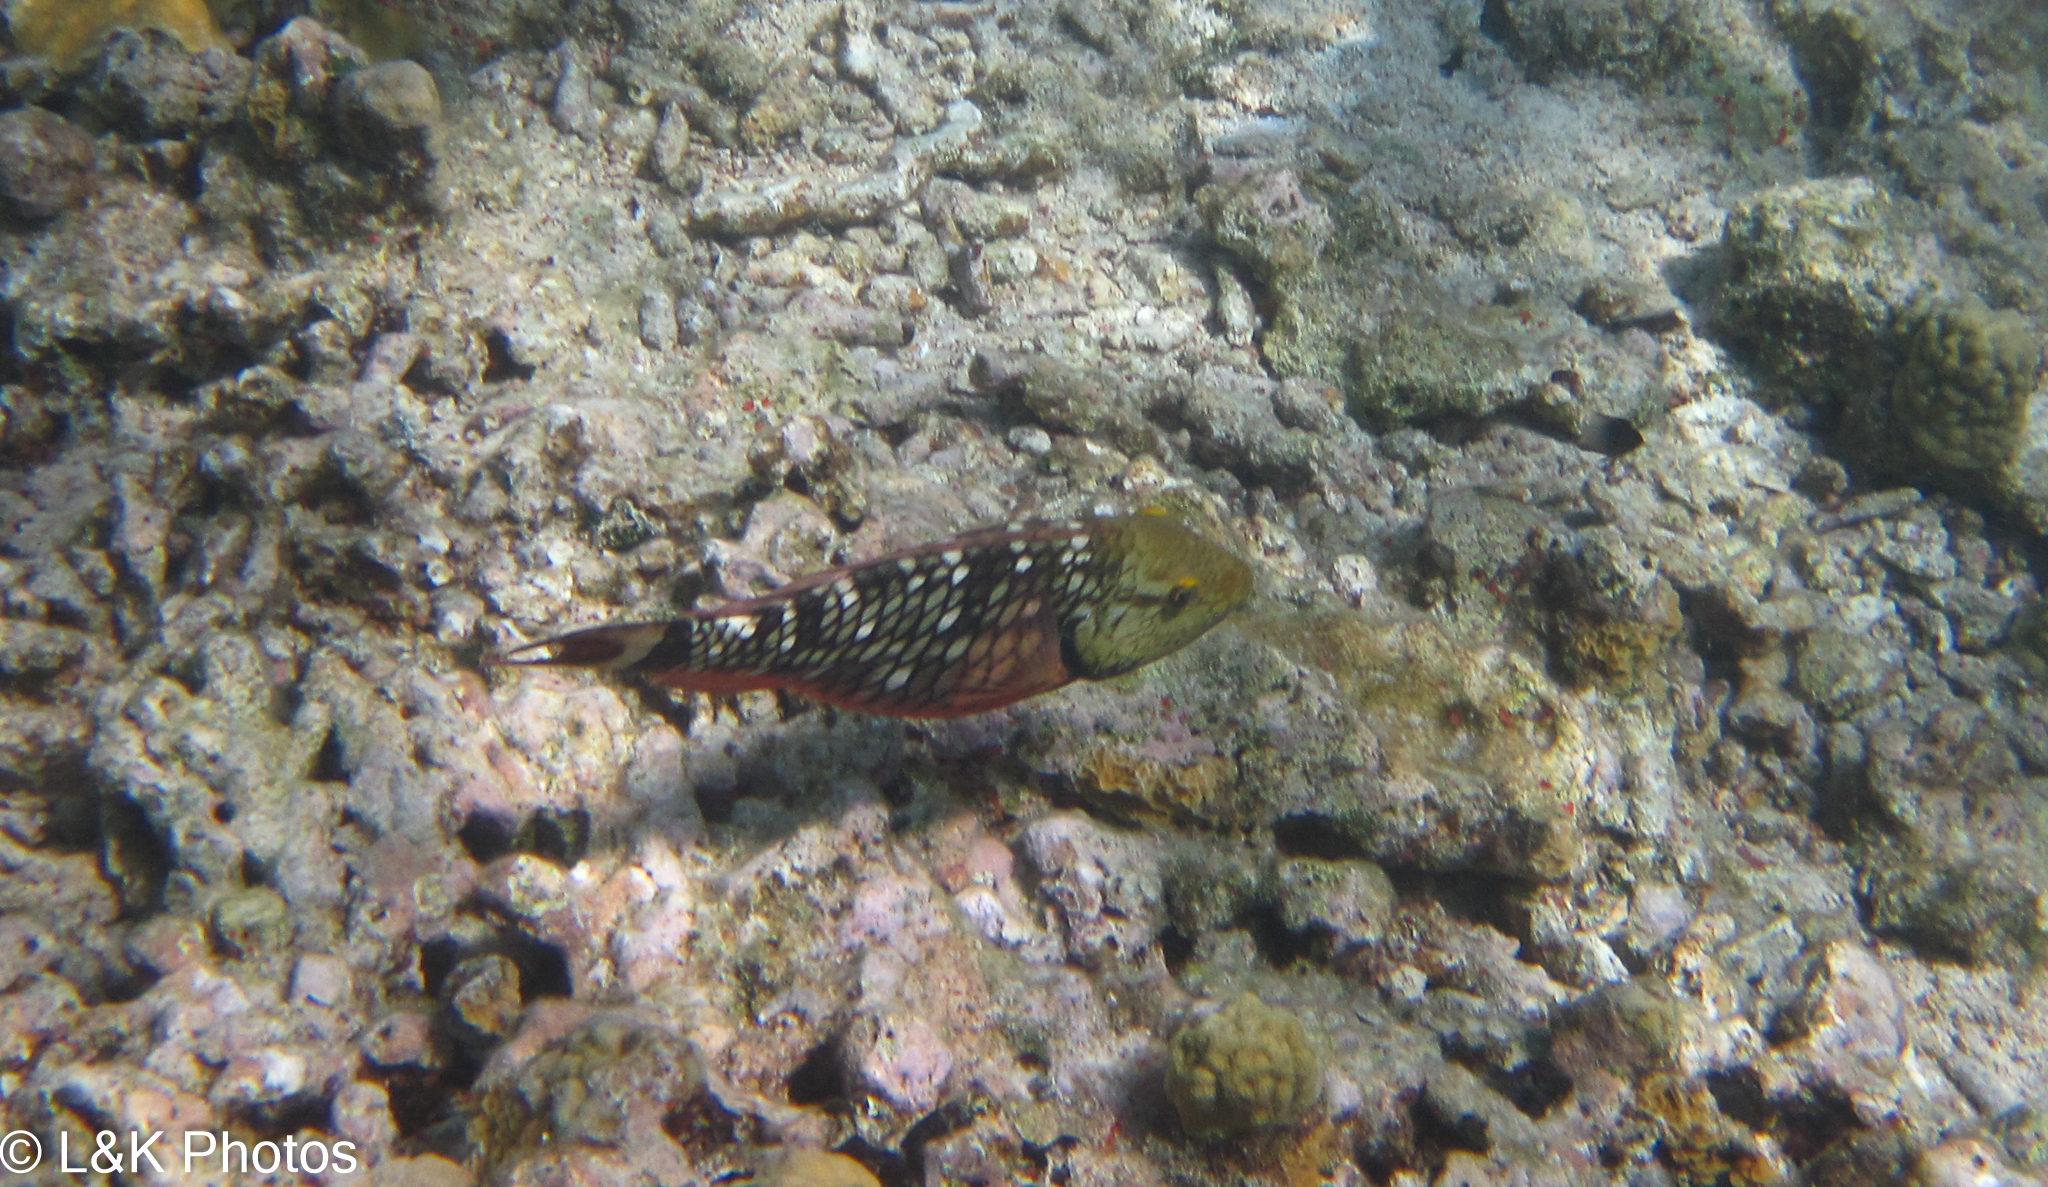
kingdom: Animalia
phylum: Chordata
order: Perciformes
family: Scaridae
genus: Sparisoma
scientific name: Sparisoma viride
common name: Stoplight parrotfish
